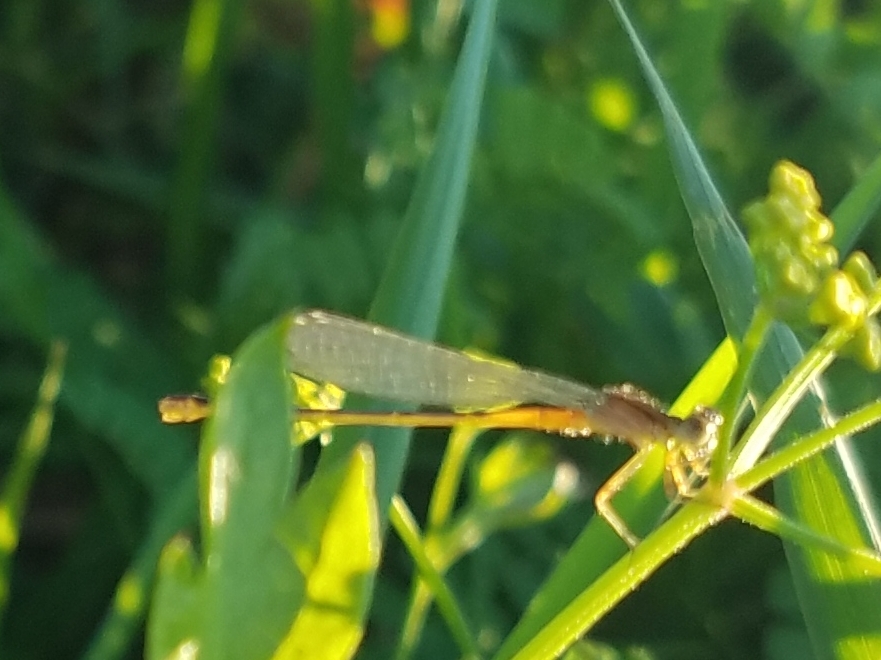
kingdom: Animalia
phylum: Arthropoda
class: Insecta
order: Odonata
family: Coenagrionidae
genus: Ischnura
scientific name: Ischnura verticalis
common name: Eastern forktail
